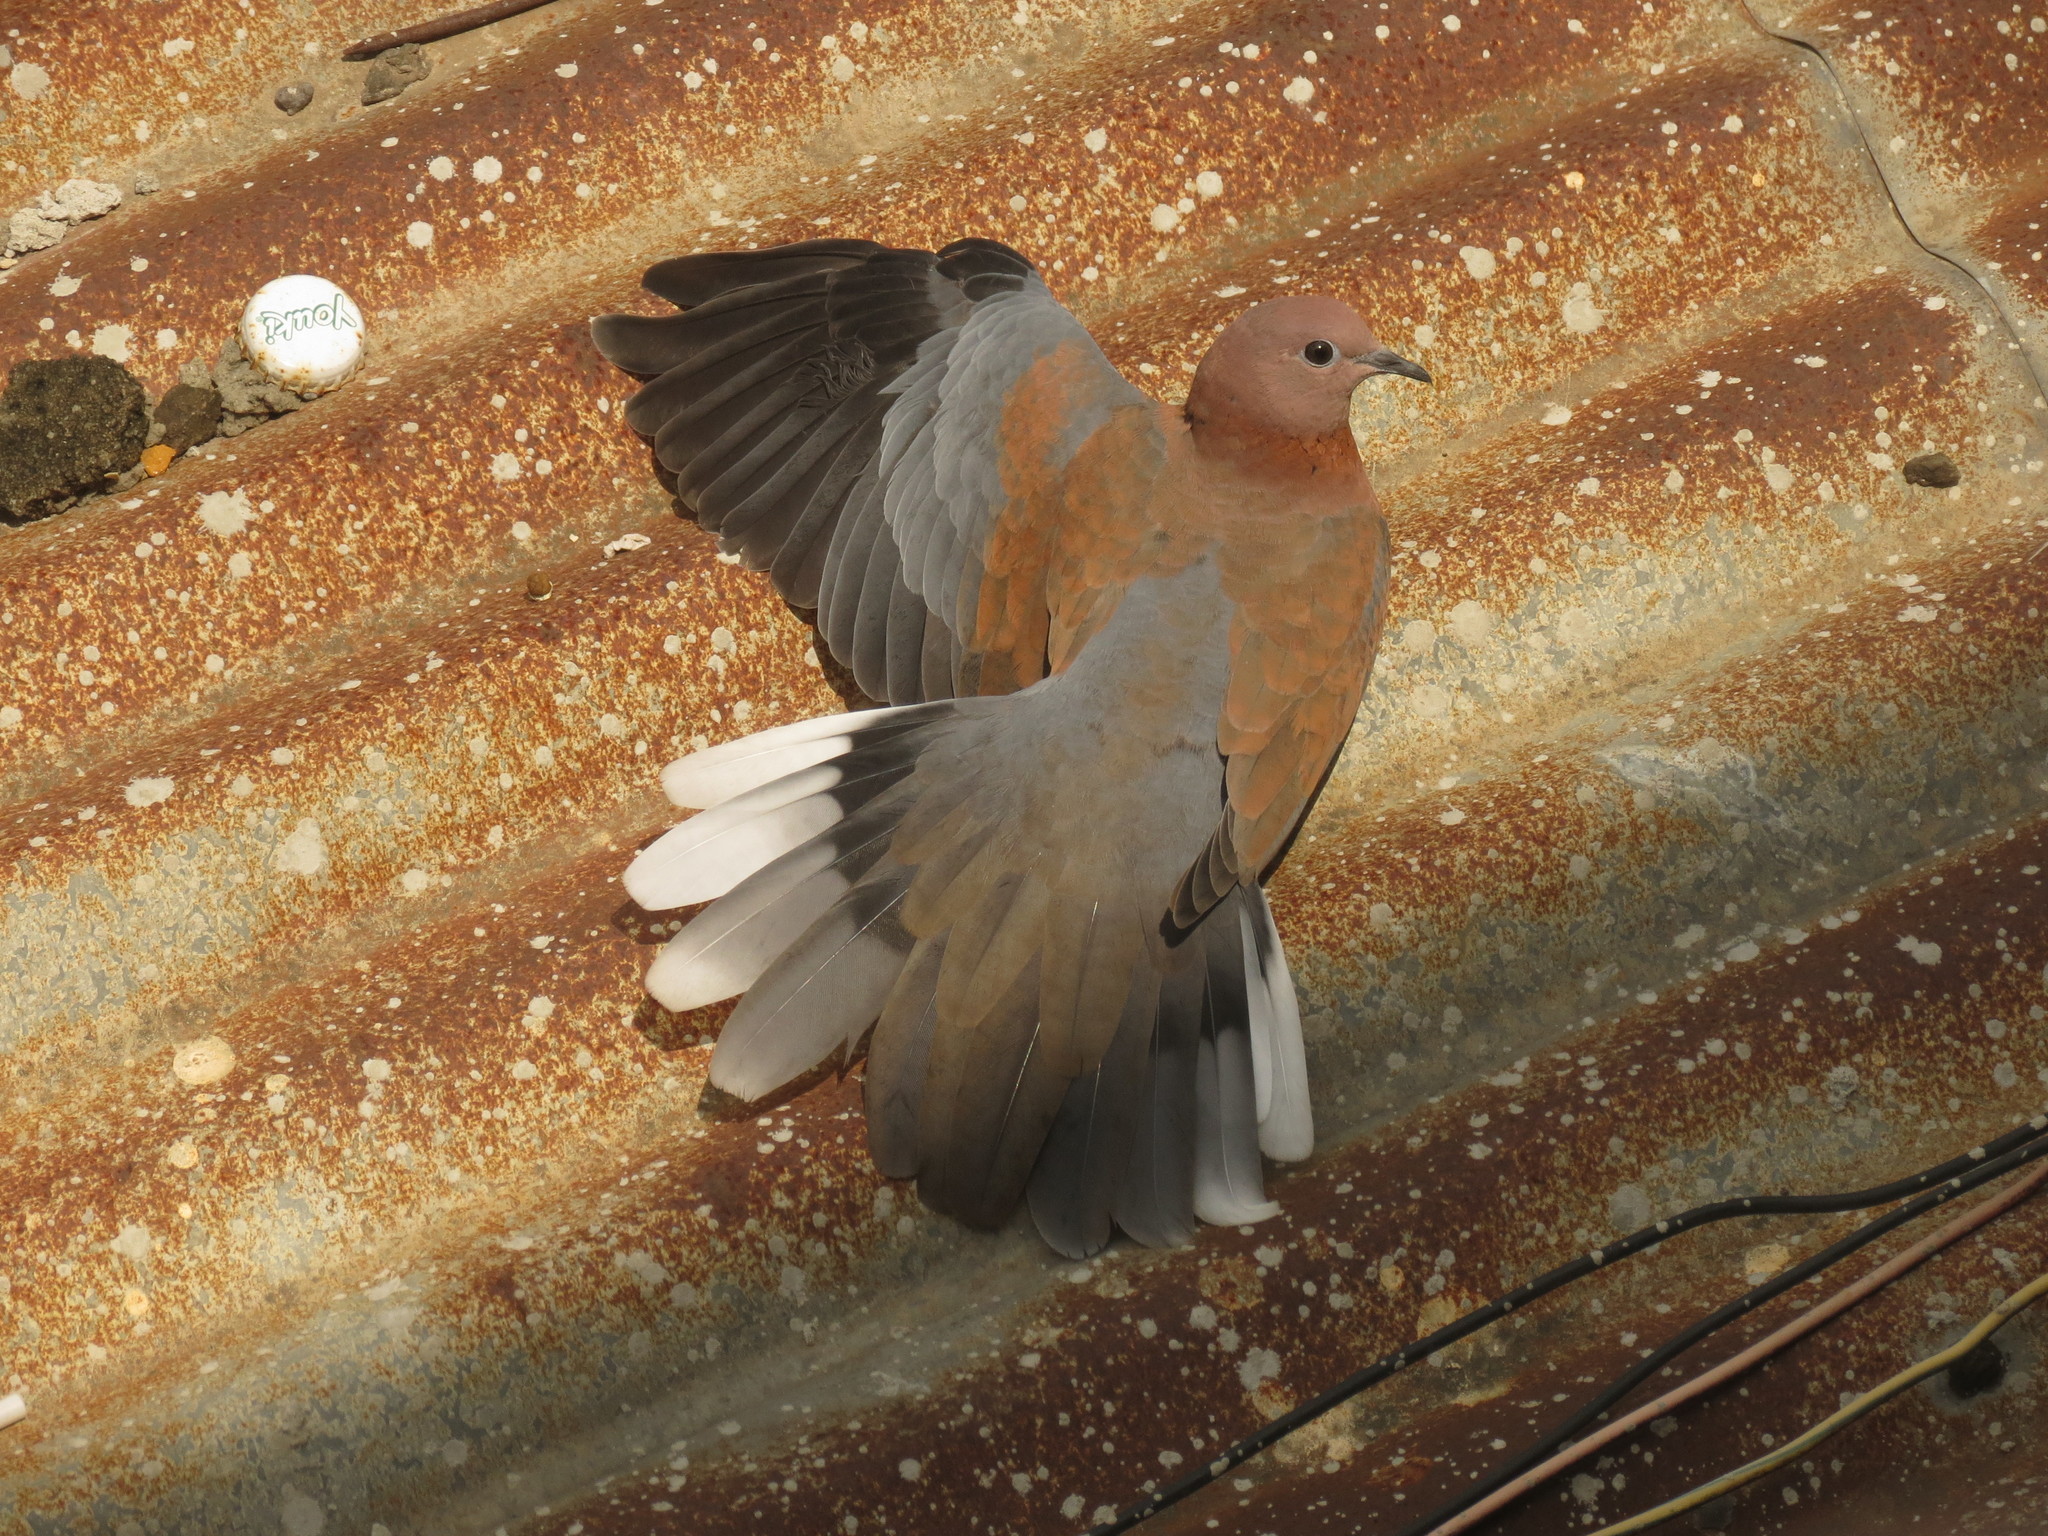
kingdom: Animalia
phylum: Chordata
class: Aves
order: Columbiformes
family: Columbidae
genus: Spilopelia
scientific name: Spilopelia senegalensis
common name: Laughing dove
